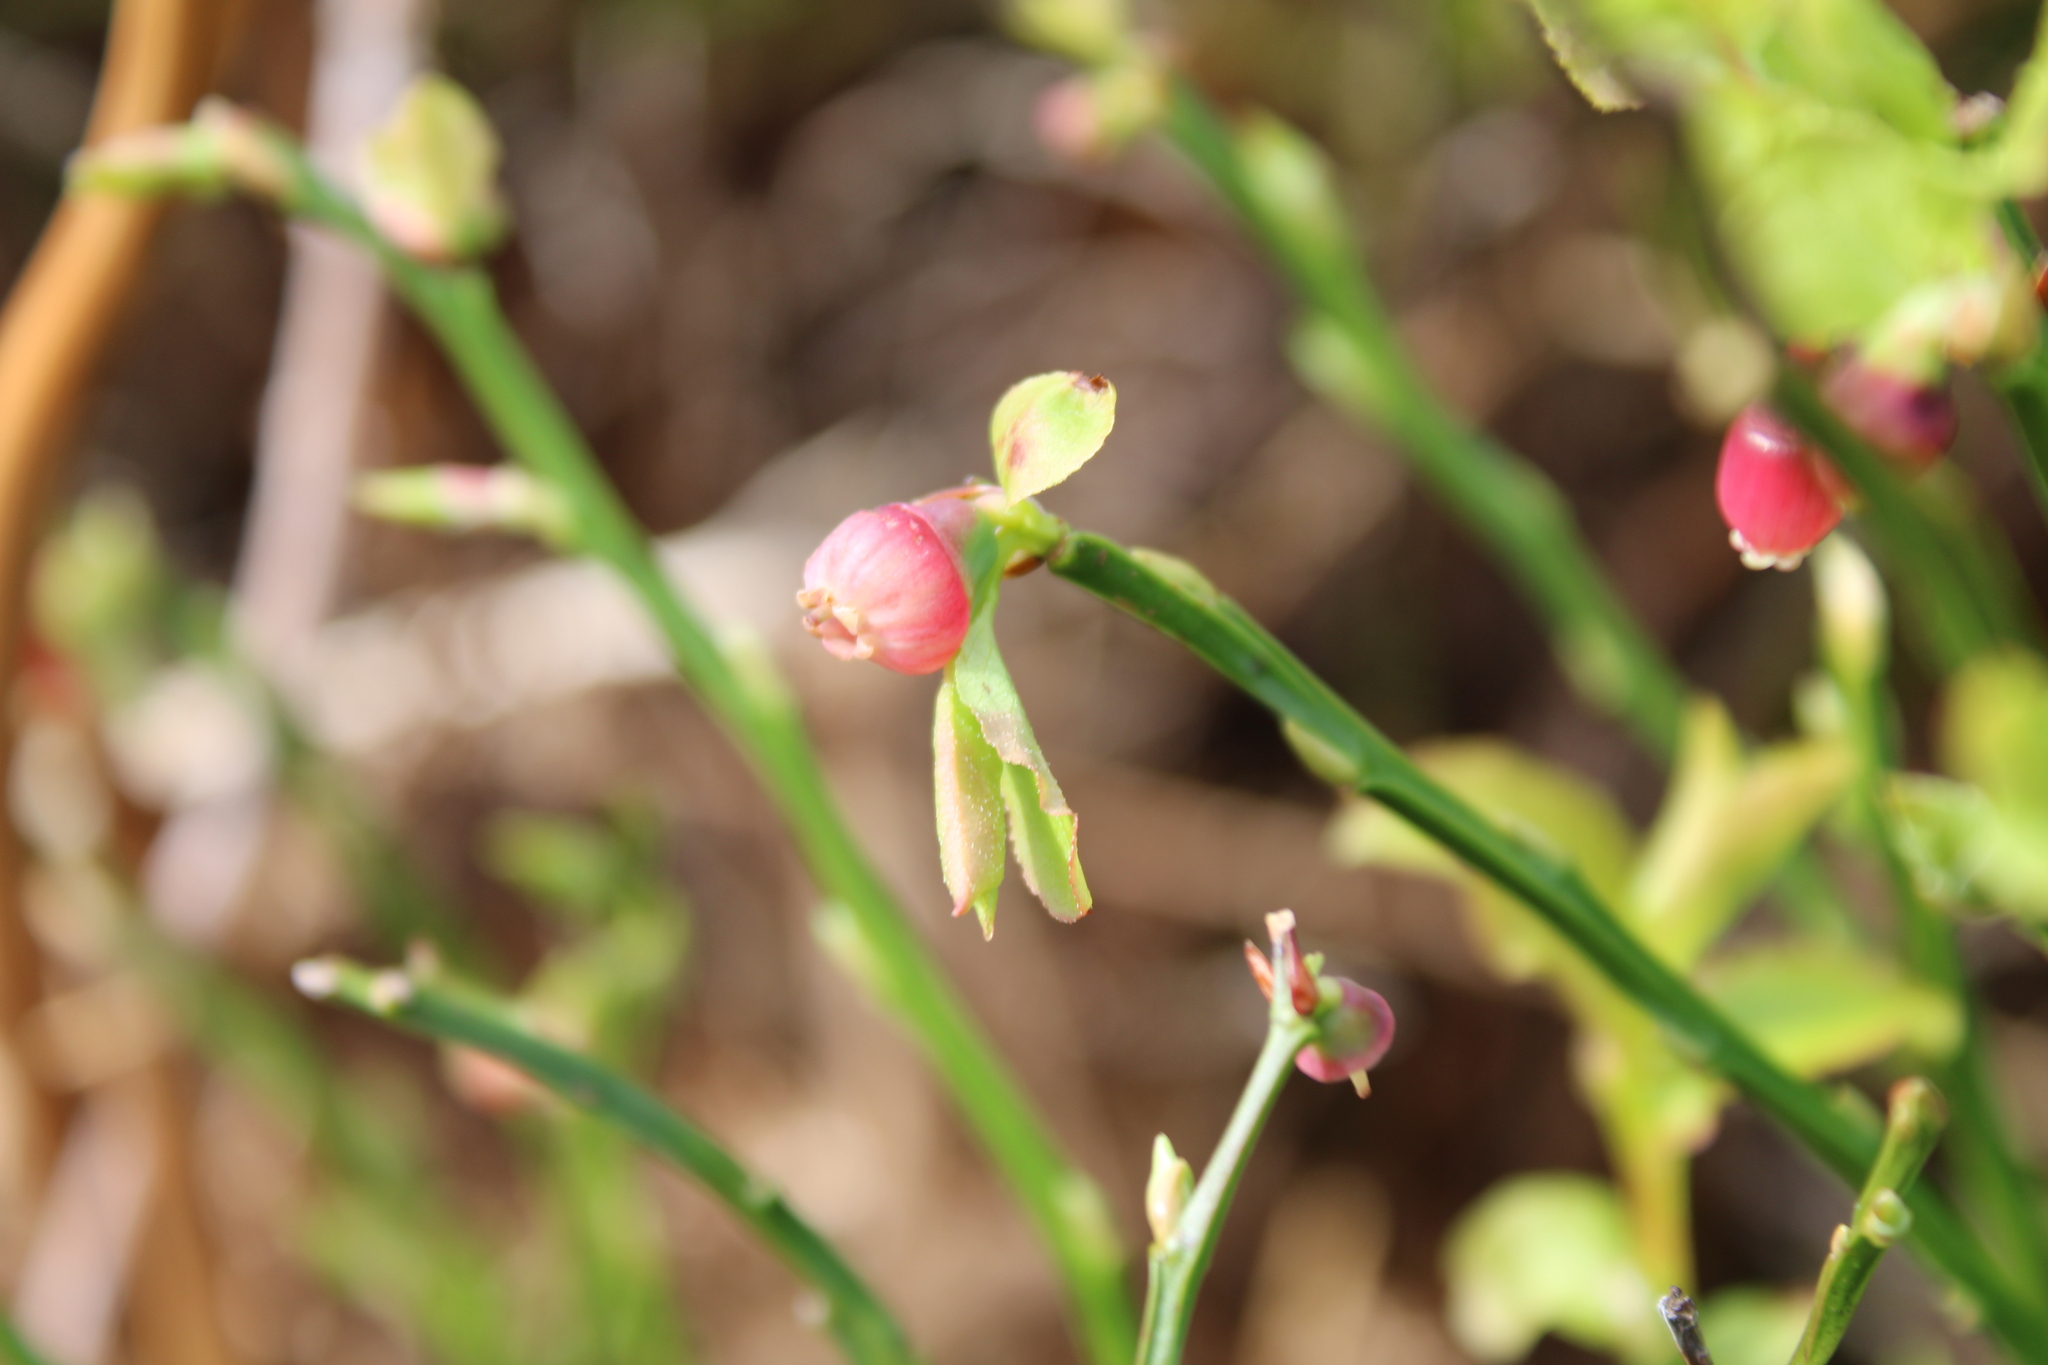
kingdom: Plantae
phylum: Tracheophyta
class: Magnoliopsida
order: Ericales
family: Ericaceae
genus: Vaccinium
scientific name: Vaccinium myrtillus
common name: Bilberry
